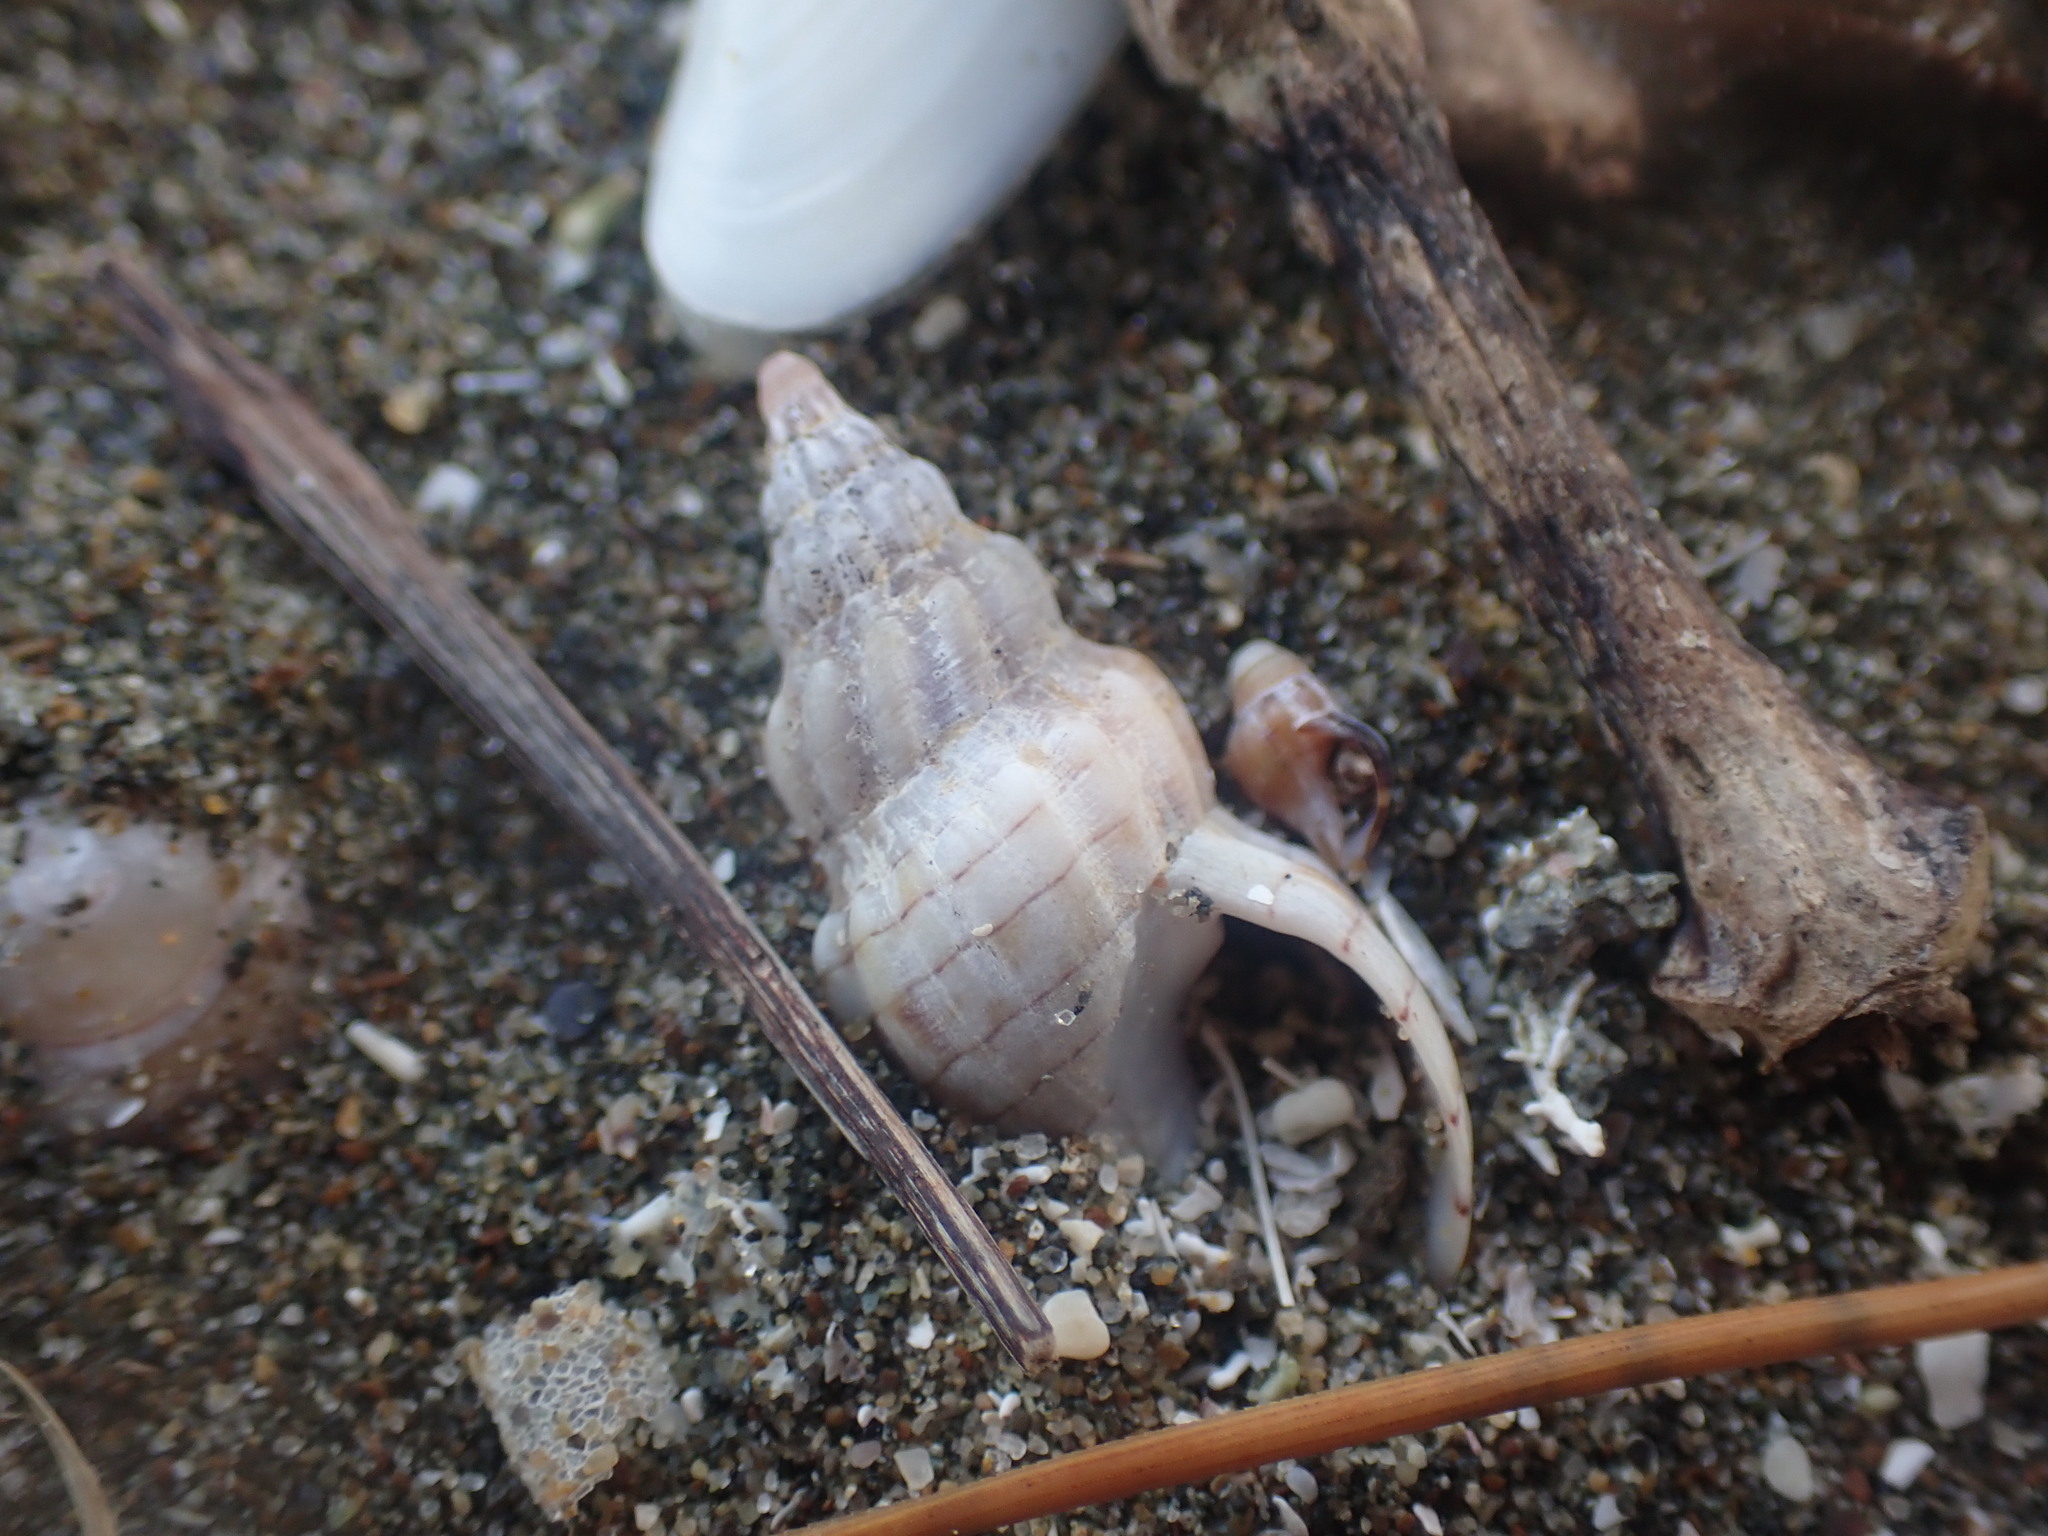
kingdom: Animalia
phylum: Mollusca
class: Gastropoda
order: Neogastropoda
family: Cominellidae
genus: Cominella
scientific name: Cominella quoyana
